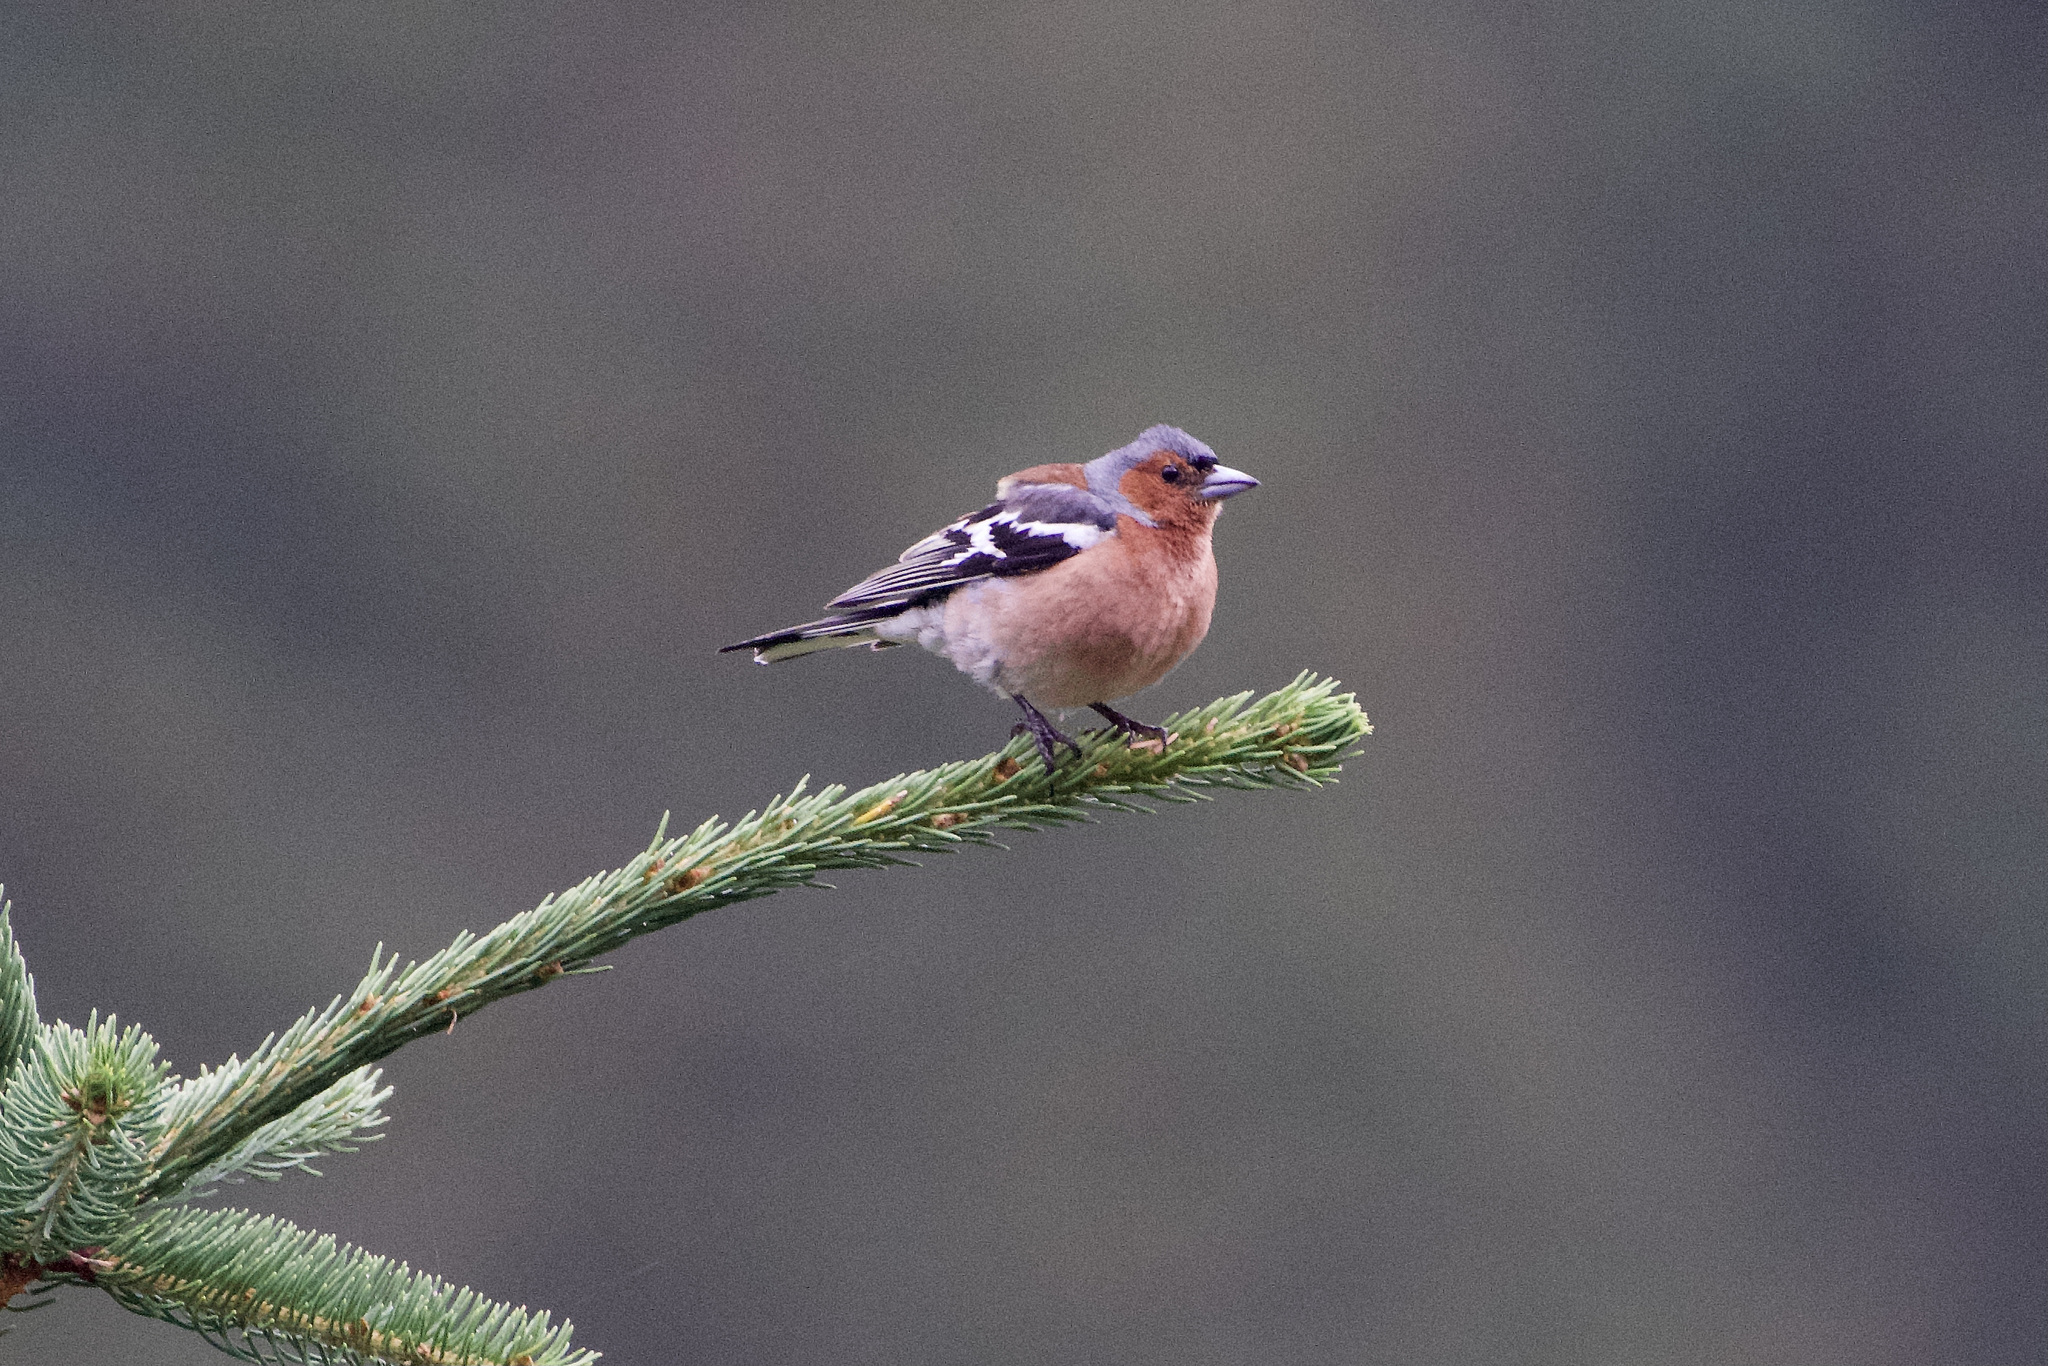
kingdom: Animalia
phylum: Chordata
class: Aves
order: Passeriformes
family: Fringillidae
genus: Fringilla
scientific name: Fringilla coelebs
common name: Common chaffinch
